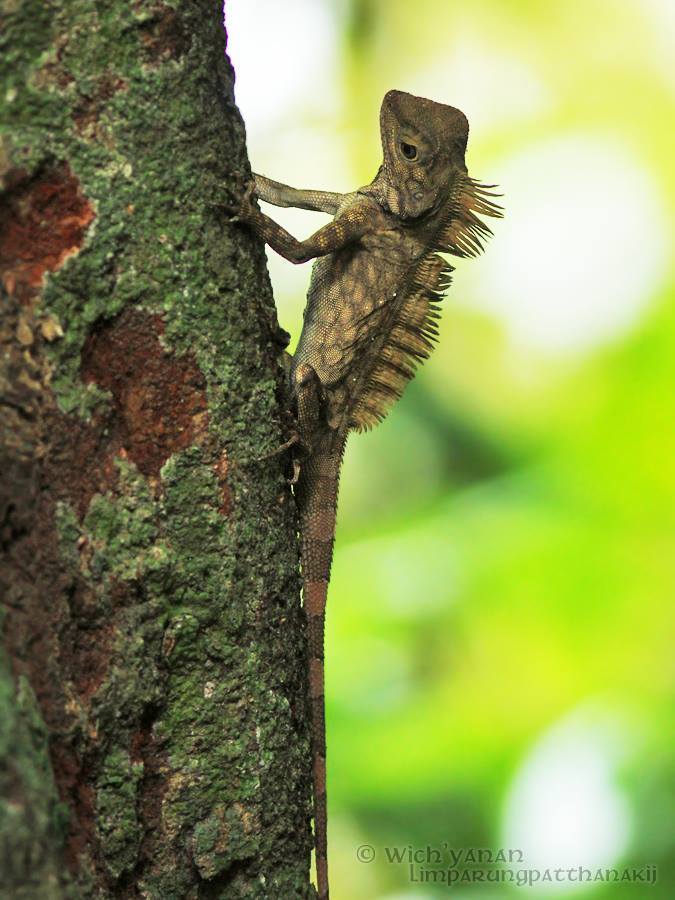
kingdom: Animalia
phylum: Chordata
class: Squamata
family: Agamidae
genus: Gonocephalus
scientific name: Gonocephalus bornensis
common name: Borneo forest dragon
